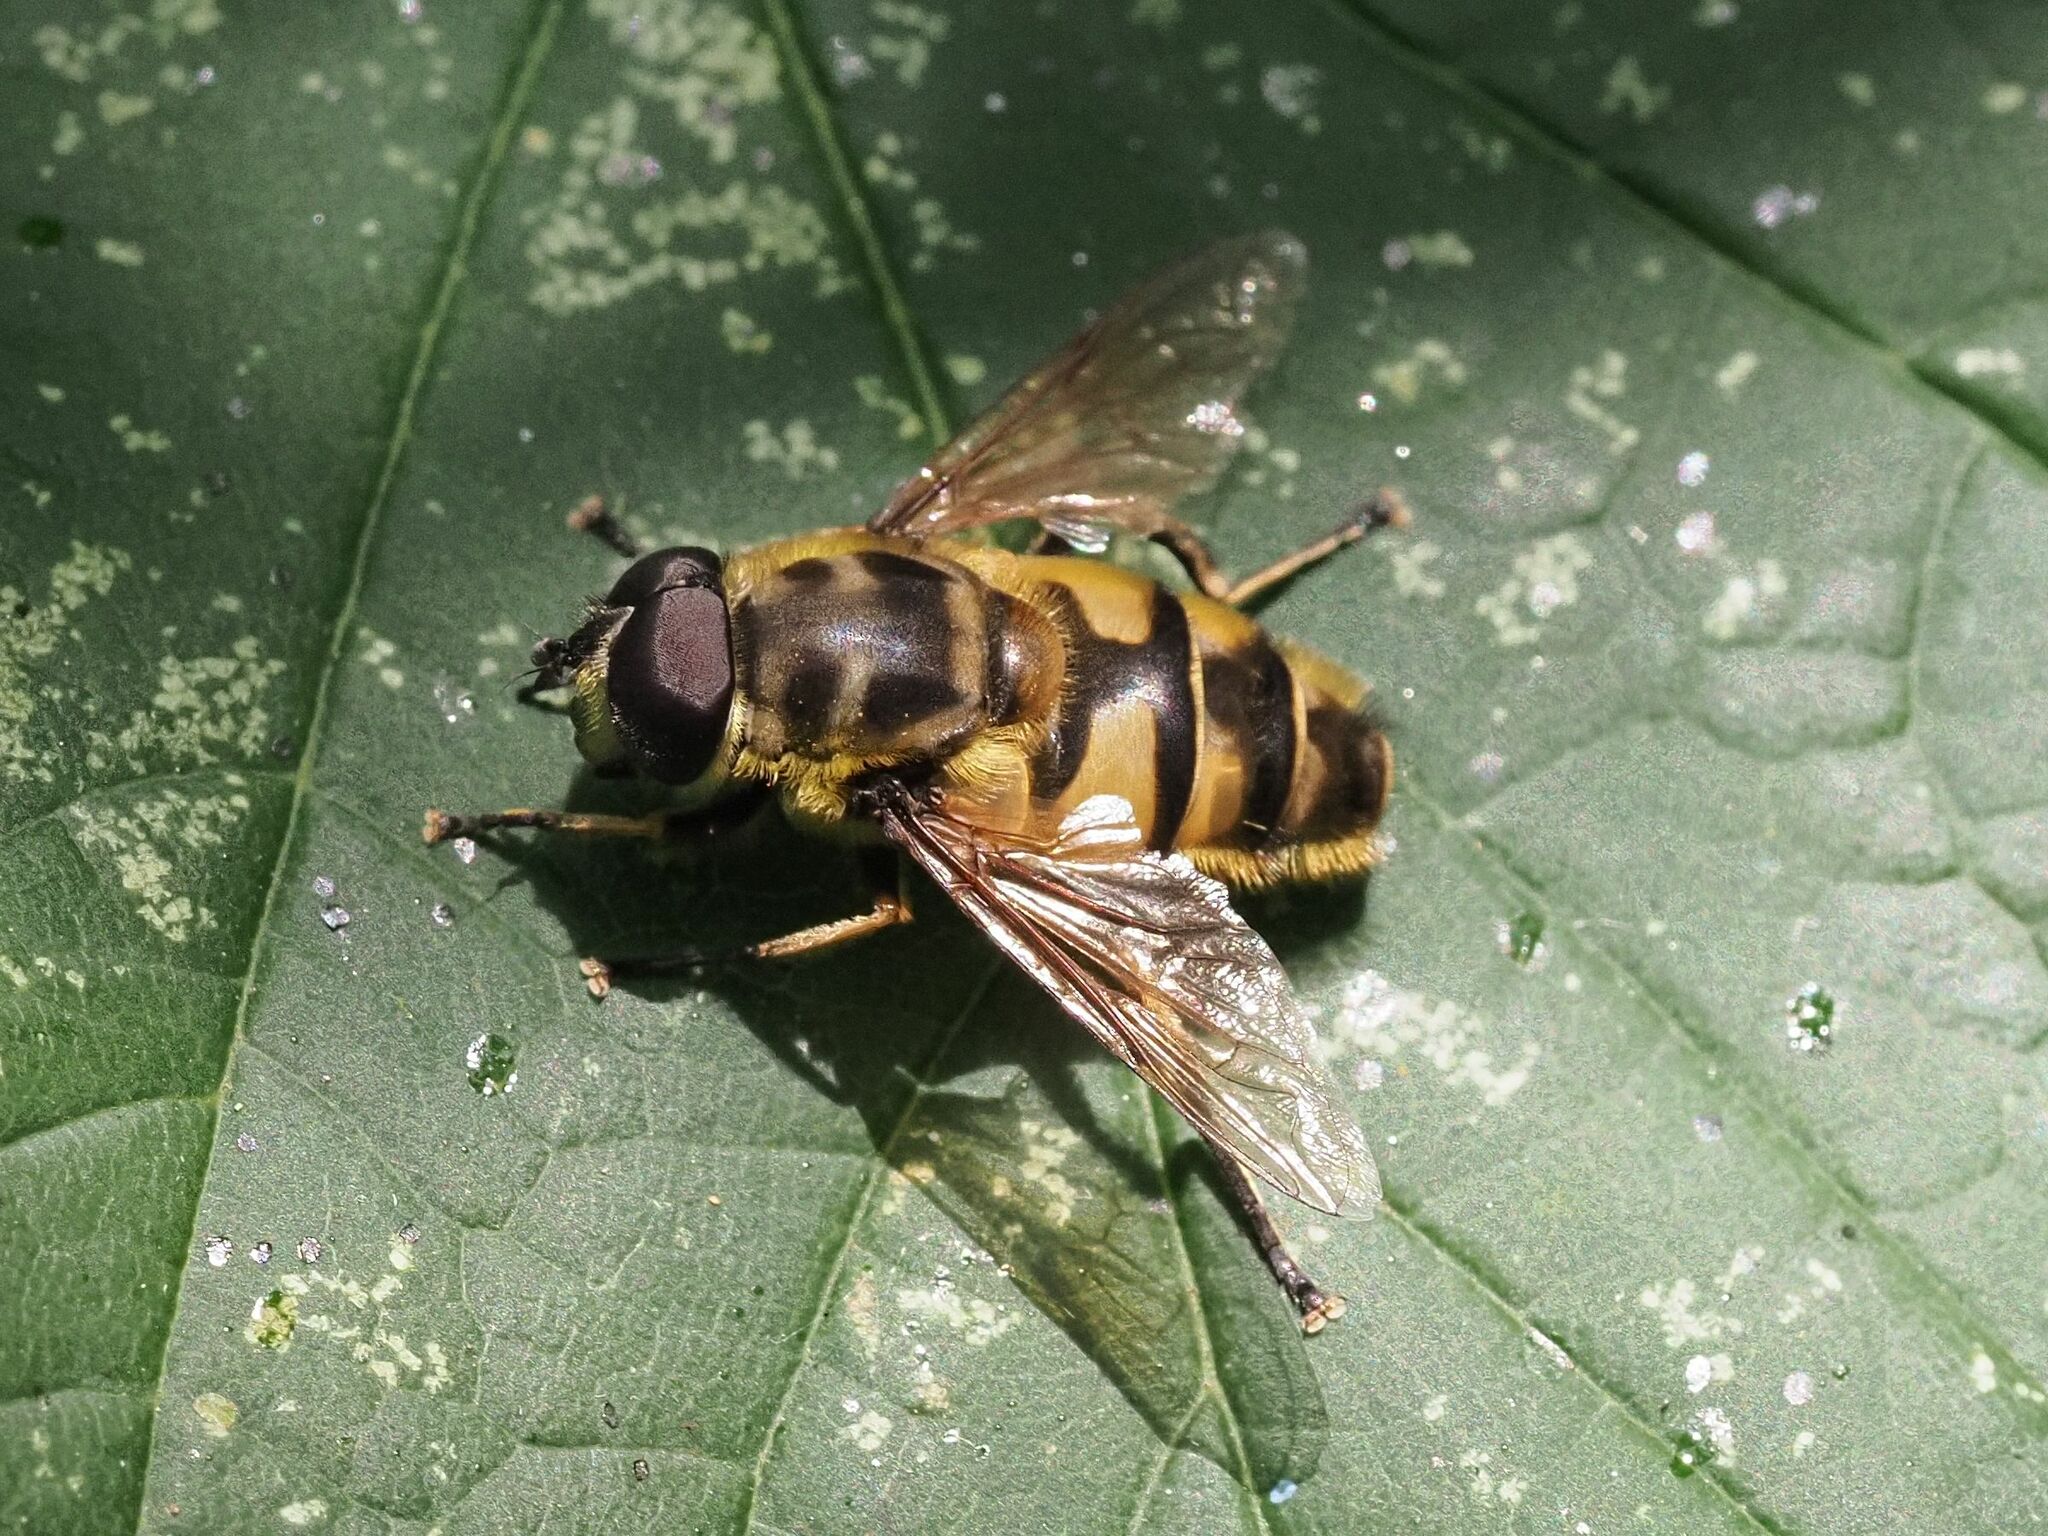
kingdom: Animalia
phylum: Arthropoda
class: Insecta
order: Diptera
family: Syrphidae
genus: Myathropa
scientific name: Myathropa florea
